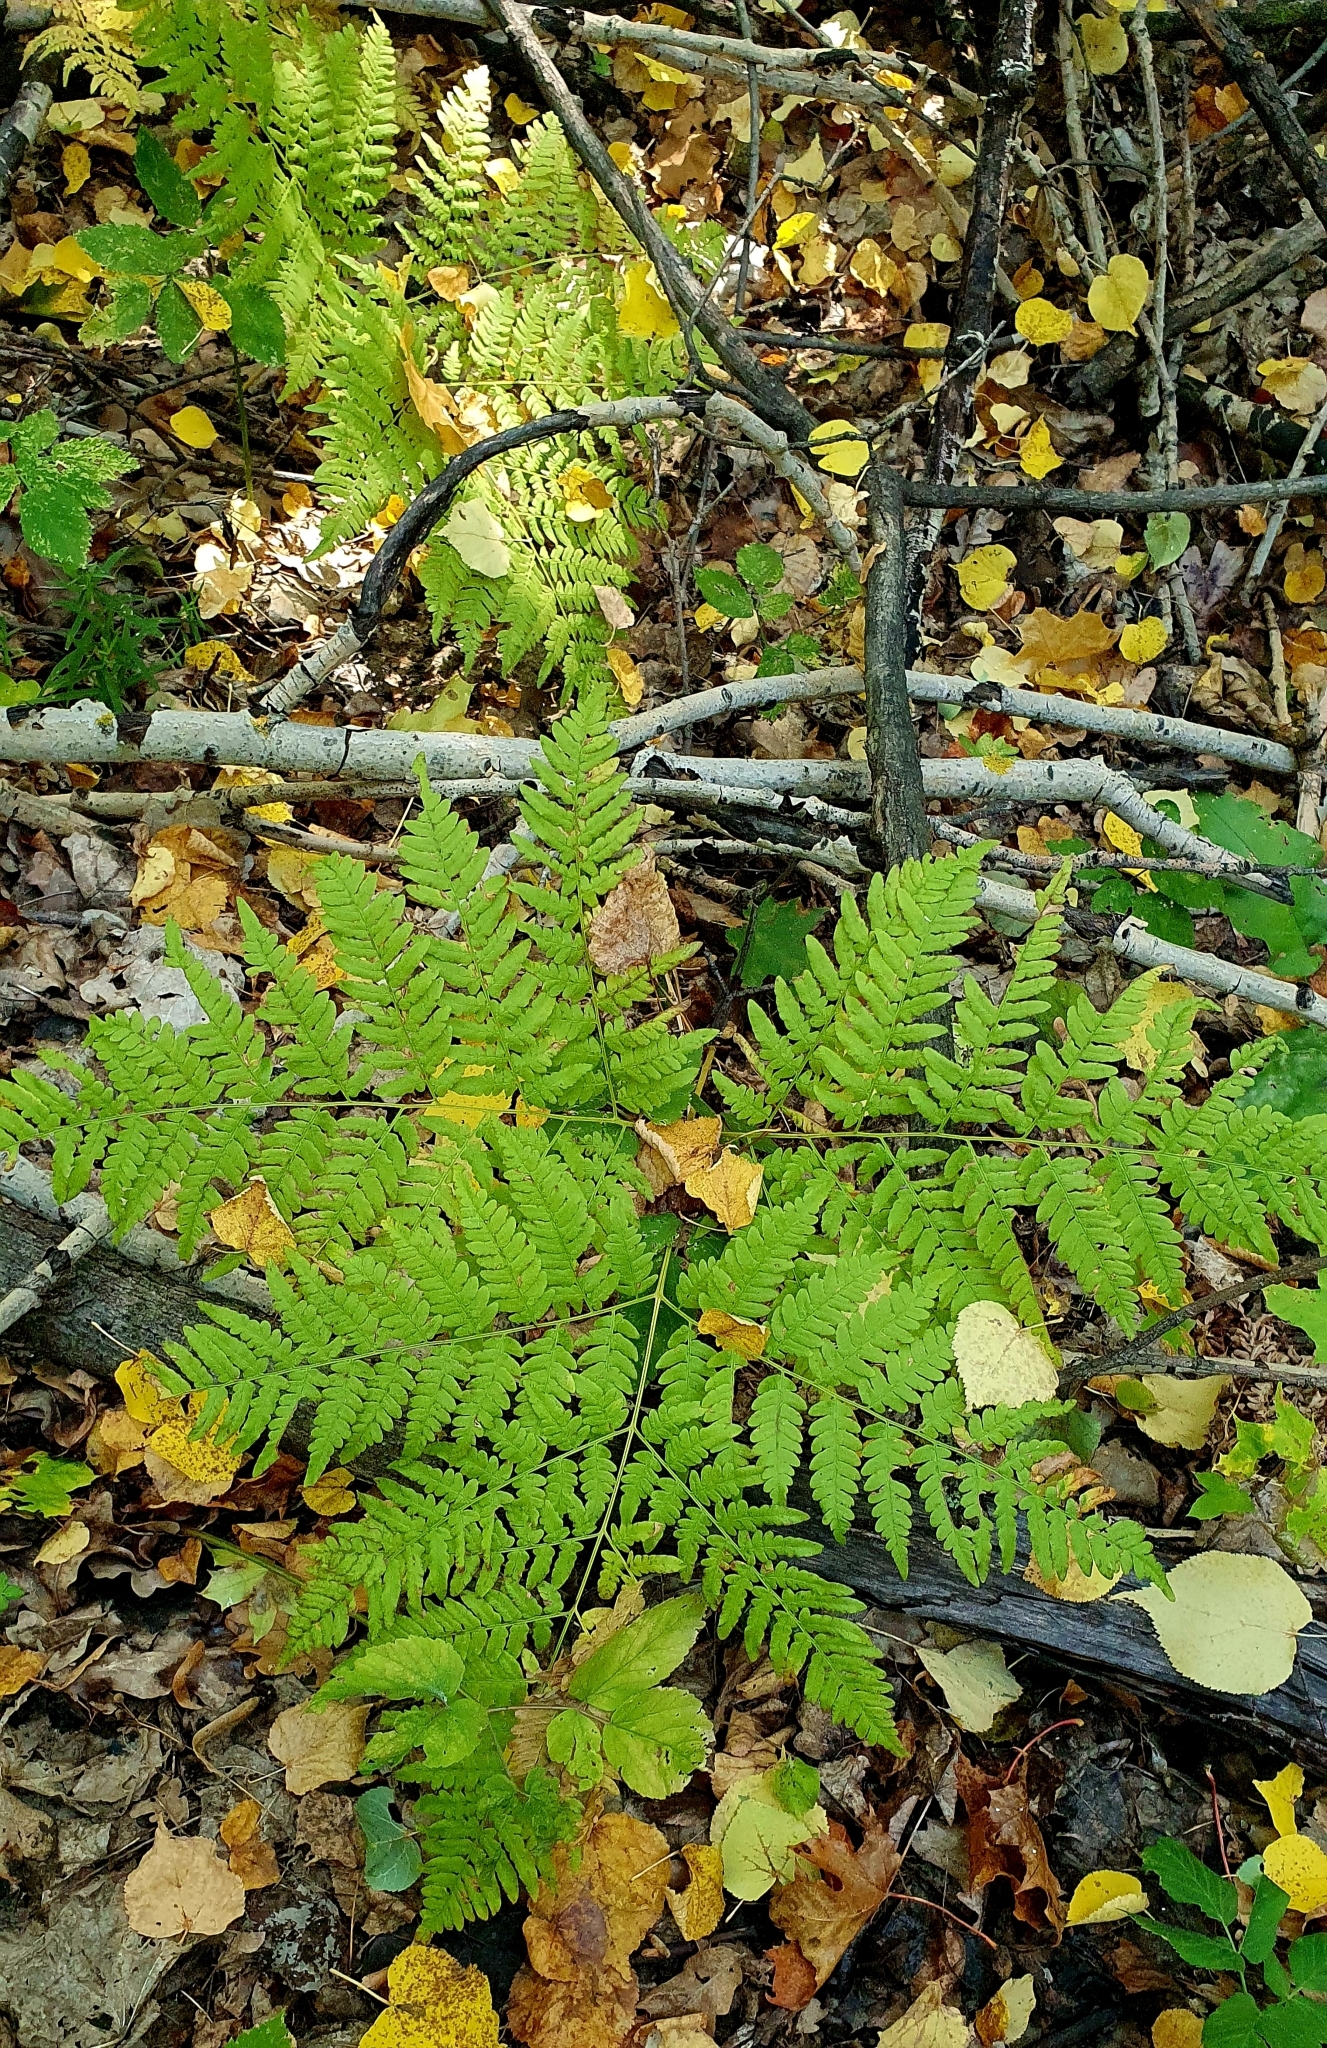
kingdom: Plantae
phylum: Tracheophyta
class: Polypodiopsida
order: Polypodiales
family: Dennstaedtiaceae
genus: Pteridium
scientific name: Pteridium aquilinum
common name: Bracken
